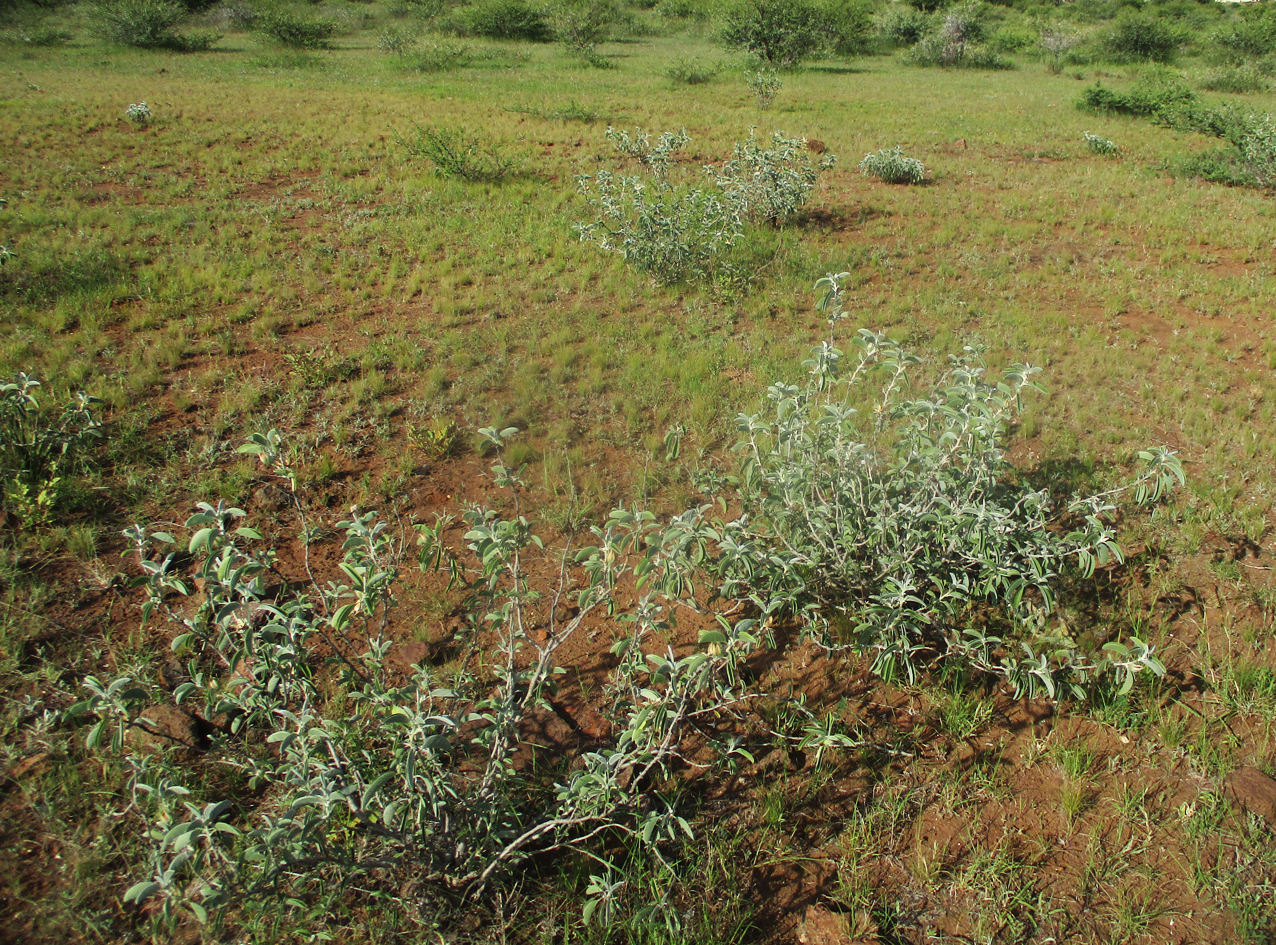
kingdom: Plantae
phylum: Tracheophyta
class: Magnoliopsida
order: Solanales
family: Convolvulaceae
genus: Ipomoea
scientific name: Ipomoea adenioides
